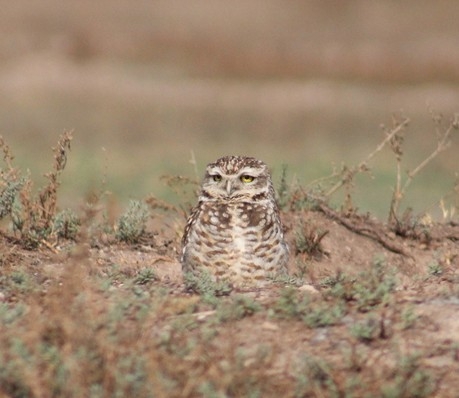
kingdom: Animalia
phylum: Chordata
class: Aves
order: Strigiformes
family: Strigidae
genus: Athene
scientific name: Athene cunicularia
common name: Burrowing owl
